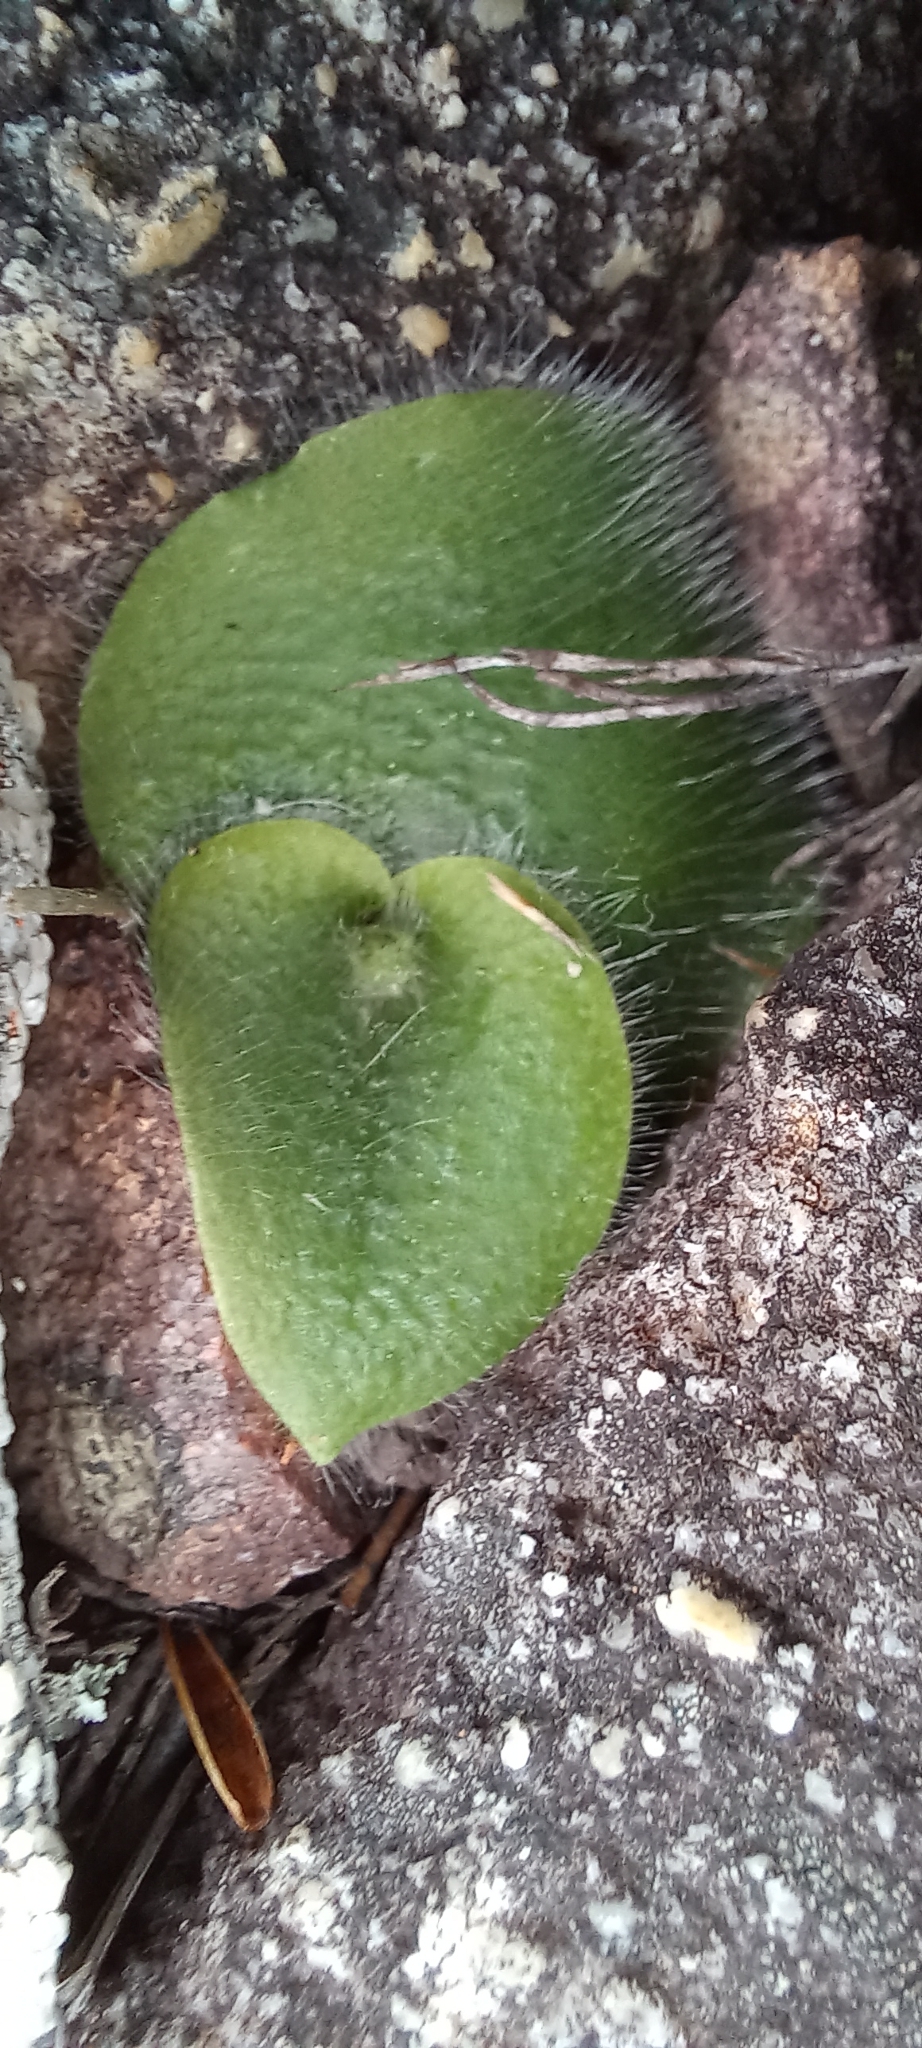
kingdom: Plantae
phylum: Tracheophyta
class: Liliopsida
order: Asparagales
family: Orchidaceae
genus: Holothrix
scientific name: Holothrix villosa
